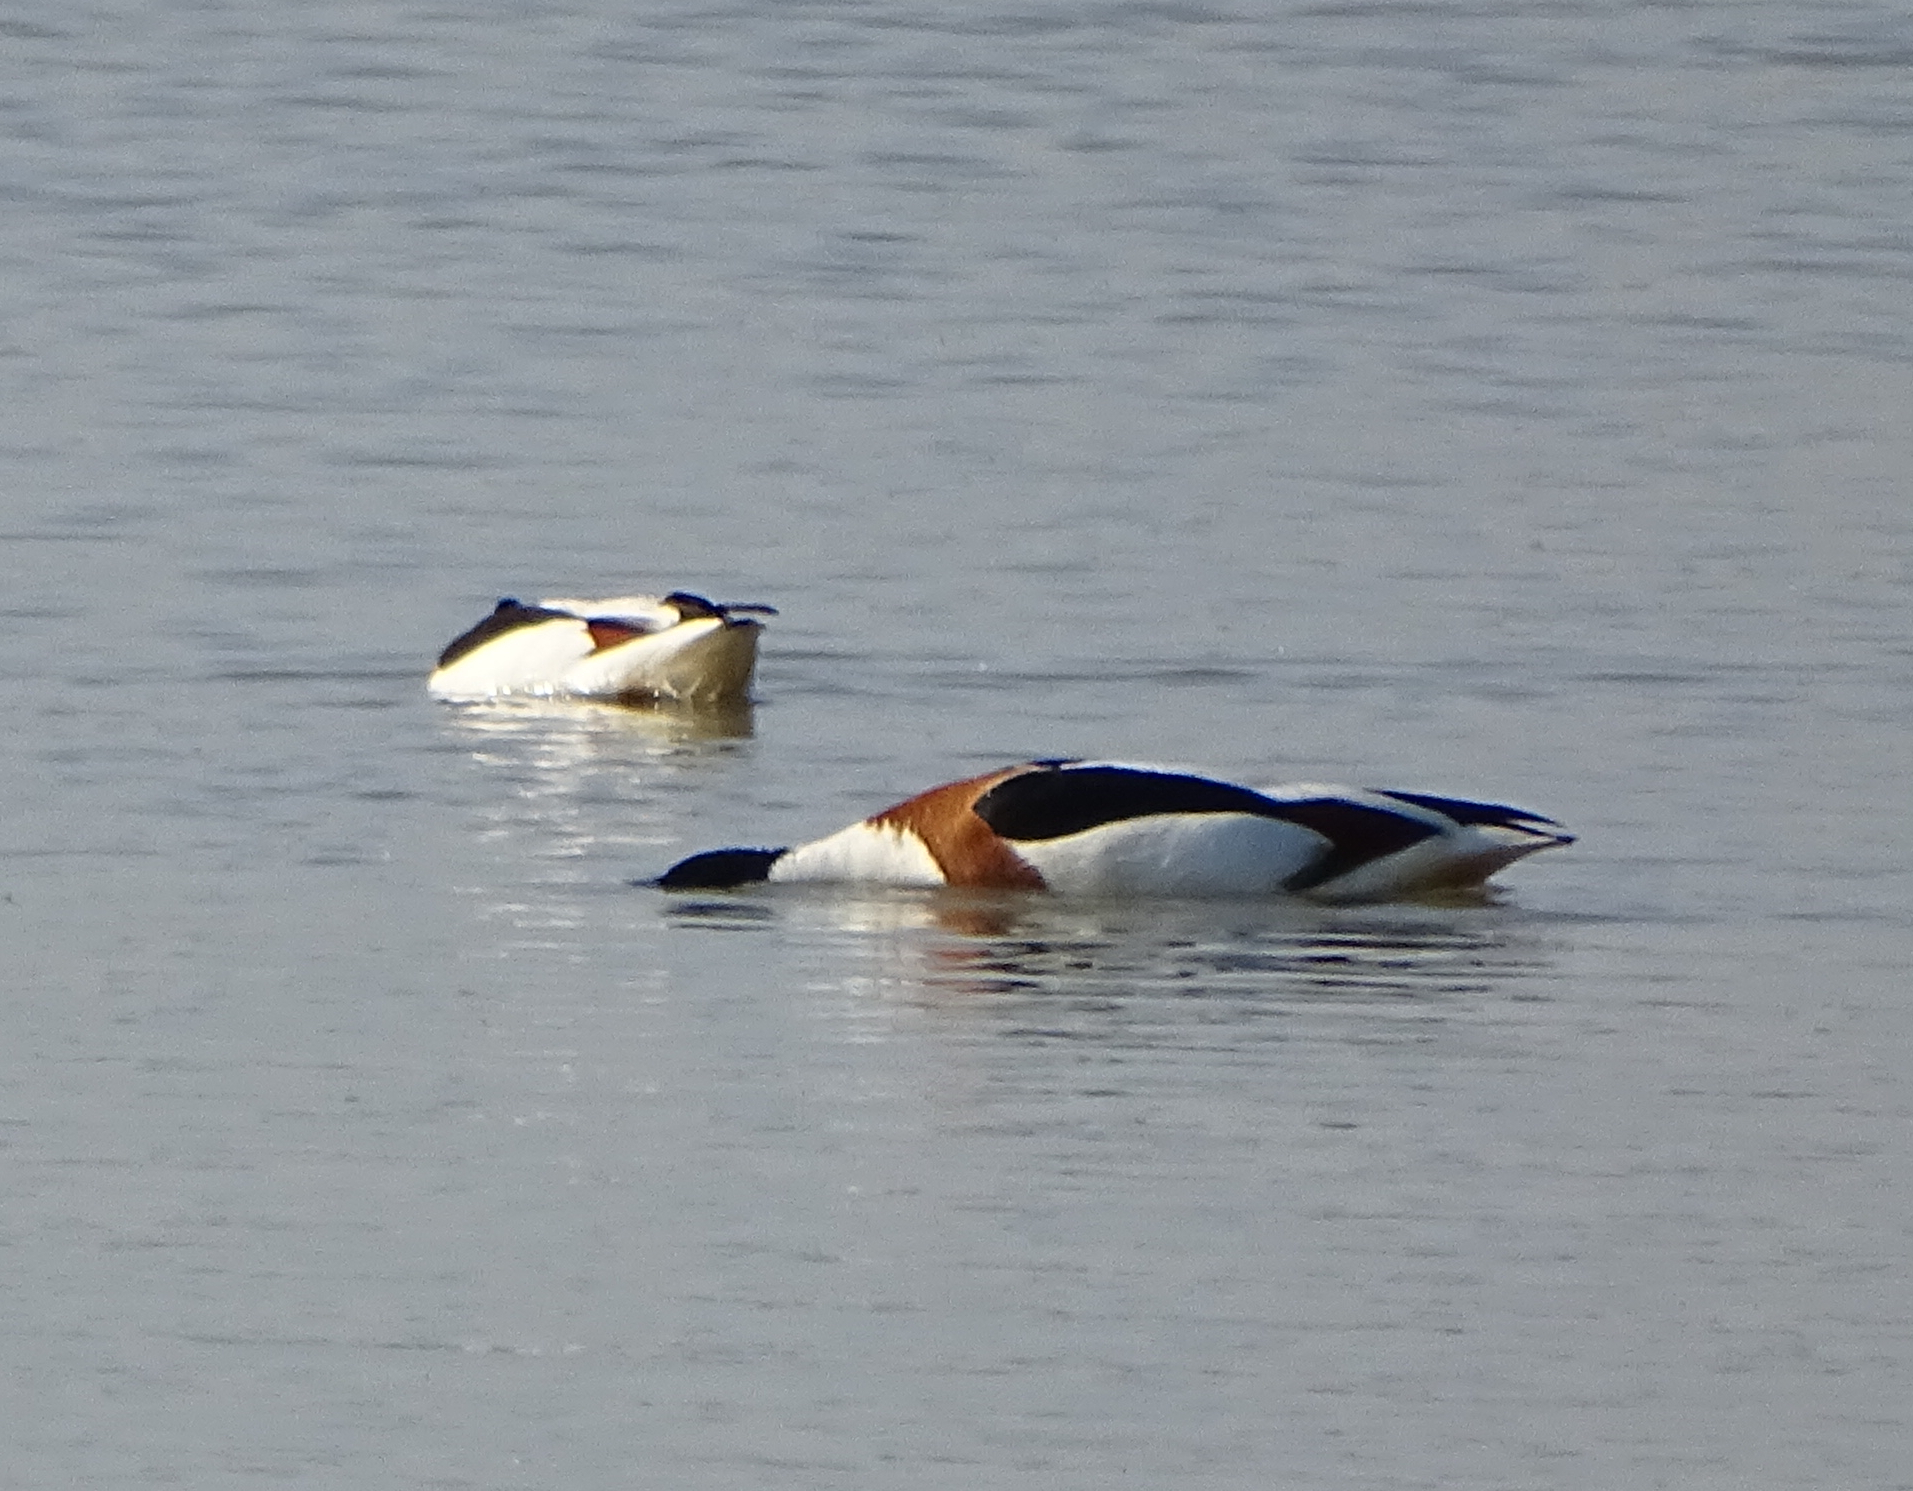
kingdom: Animalia
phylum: Chordata
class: Aves
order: Anseriformes
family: Anatidae
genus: Tadorna
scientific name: Tadorna tadorna
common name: Common shelduck
